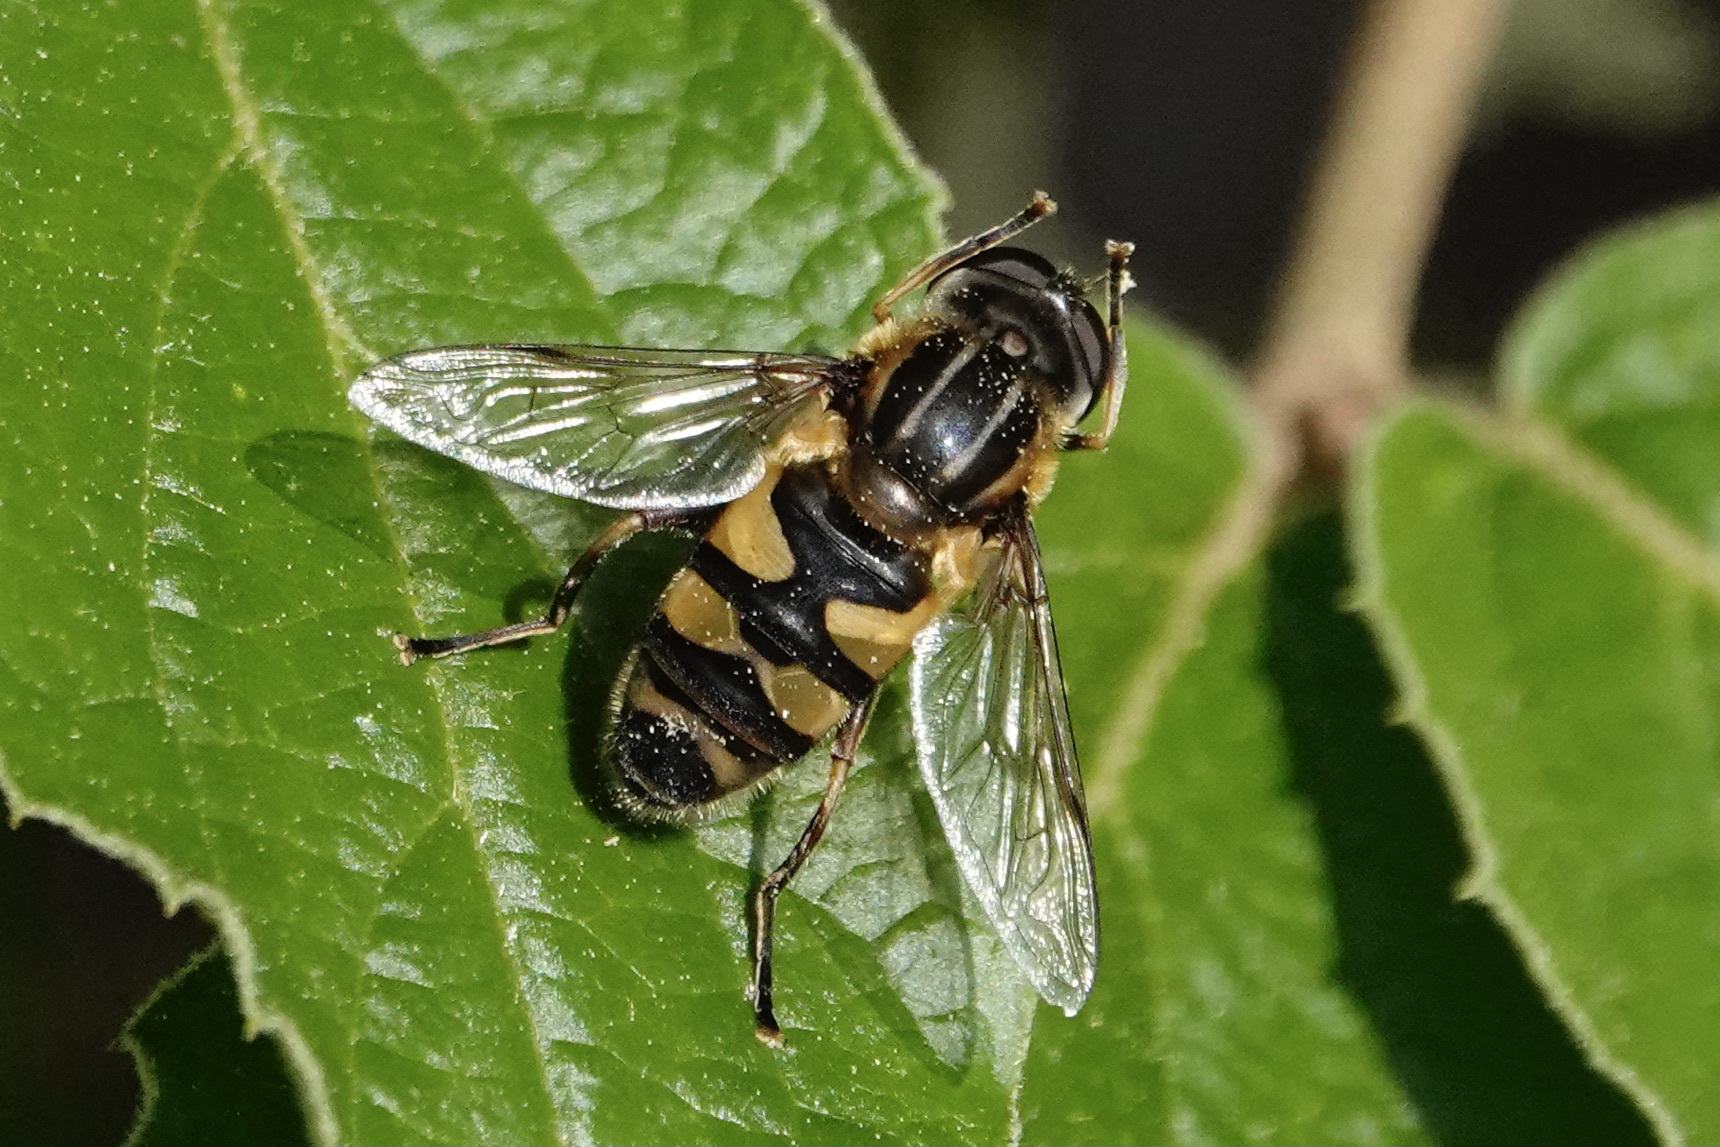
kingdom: Animalia
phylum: Arthropoda
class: Insecta
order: Diptera
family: Syrphidae
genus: Helophilus
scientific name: Helophilus fasciatus
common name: Narrow-headed marsh fly
